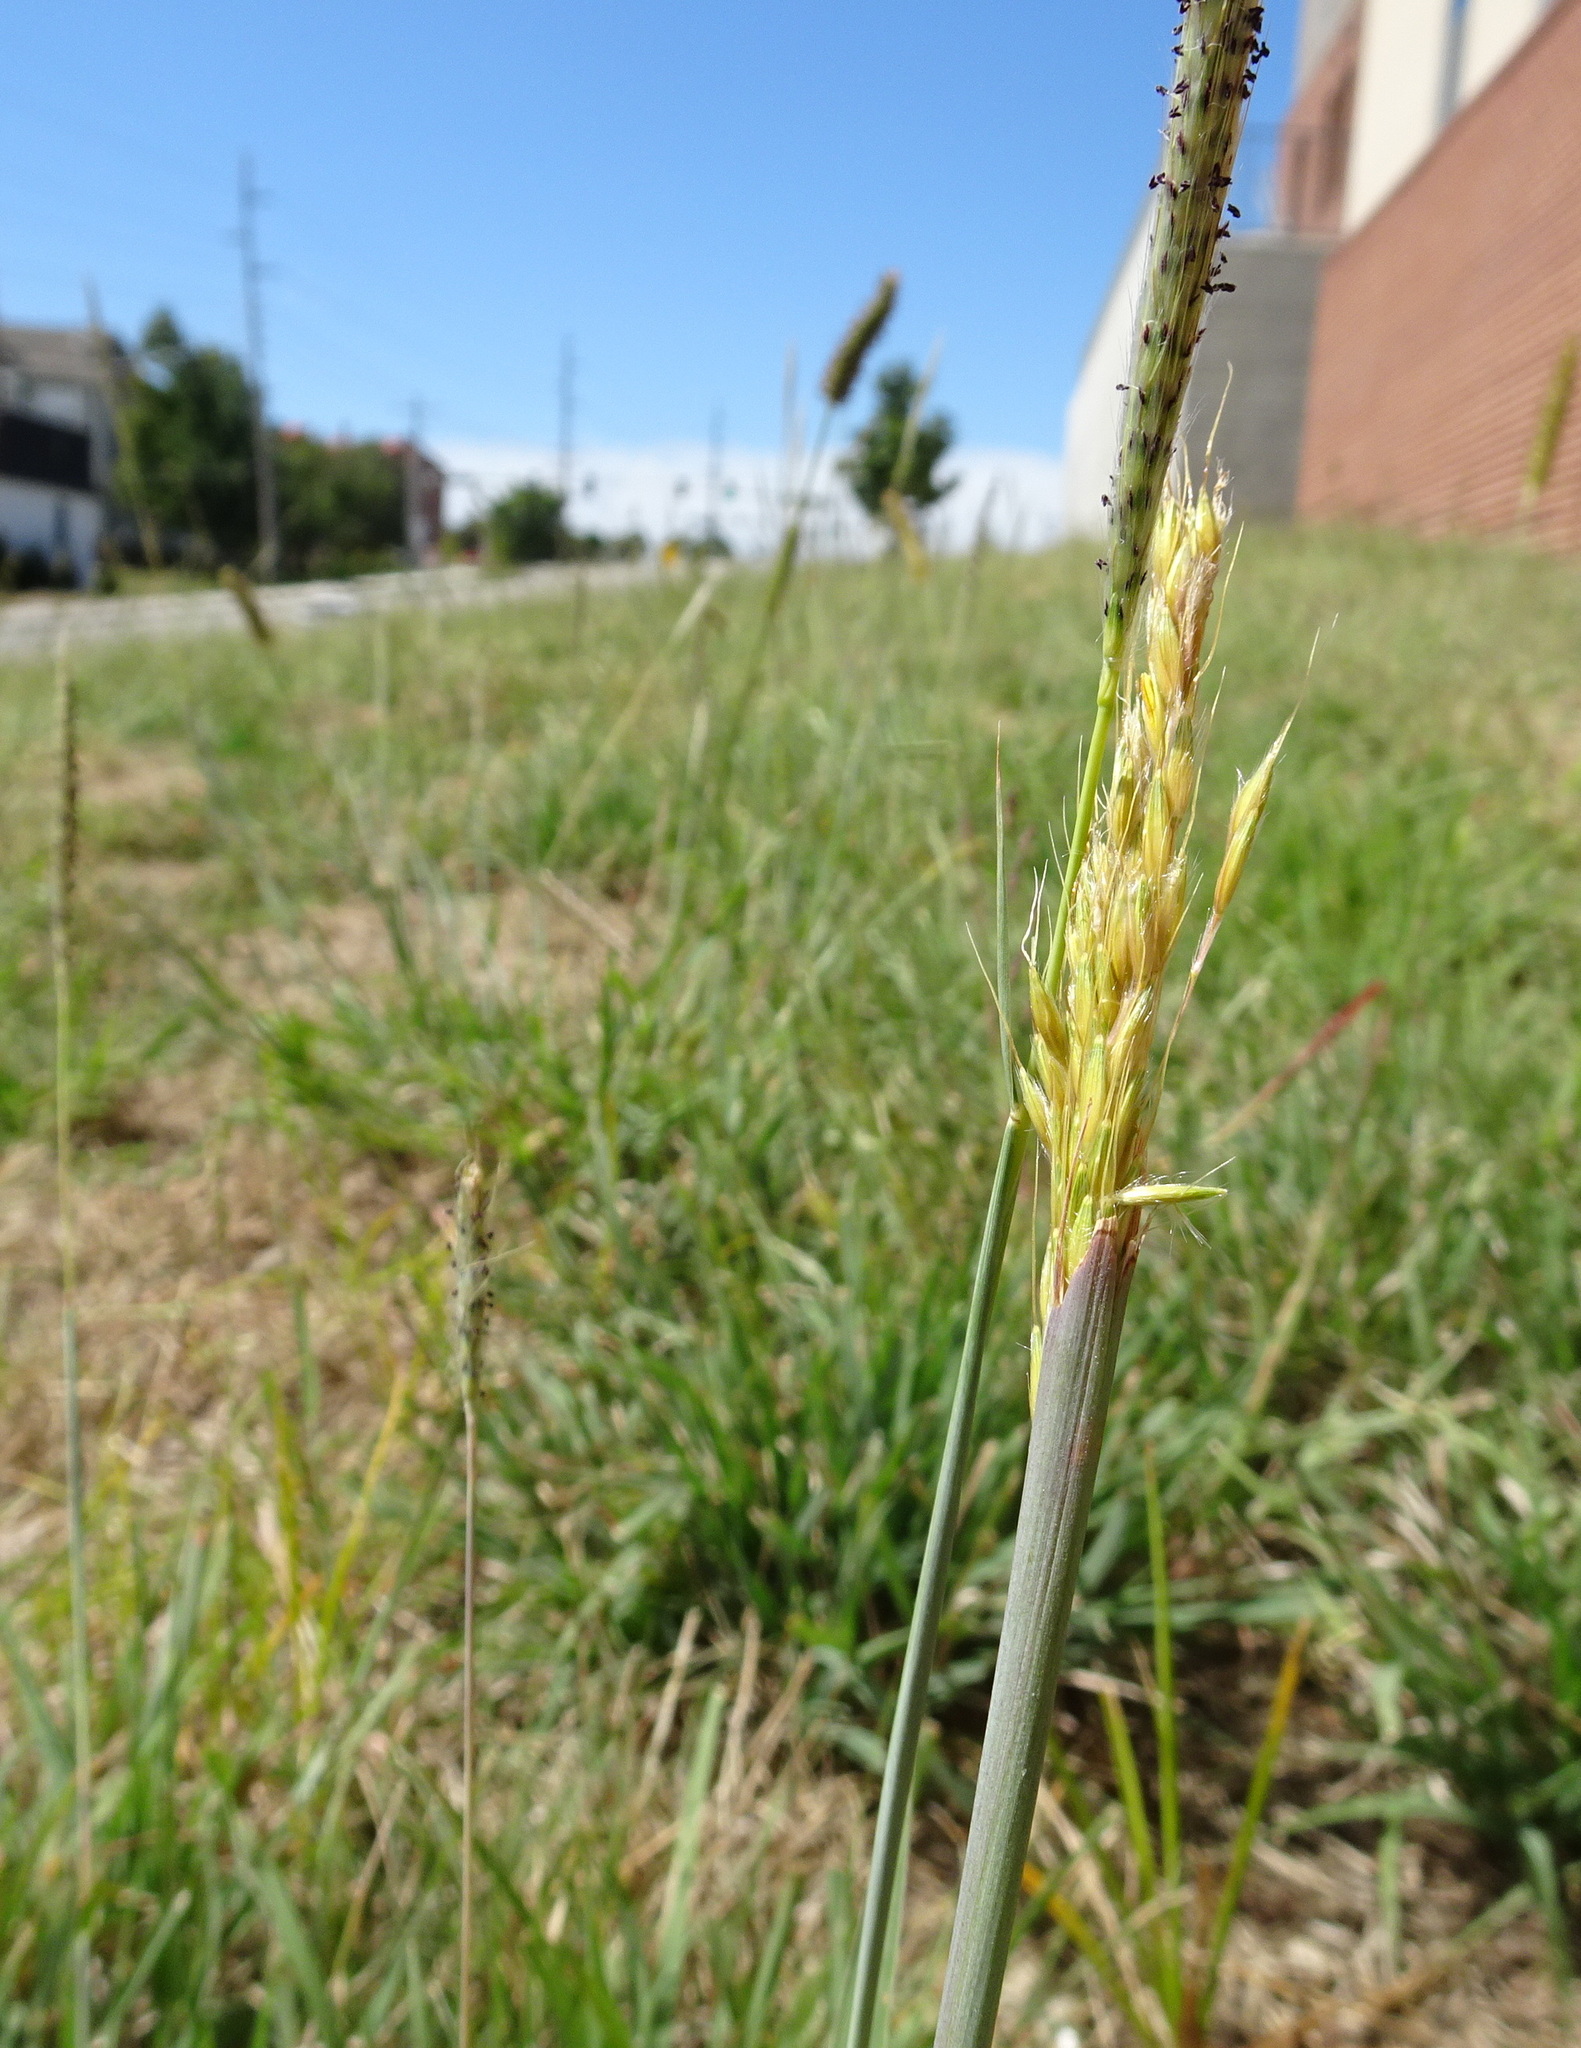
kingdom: Plantae
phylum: Tracheophyta
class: Liliopsida
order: Poales
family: Poaceae
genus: Sorghastrum
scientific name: Sorghastrum nutans
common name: Indian grass
